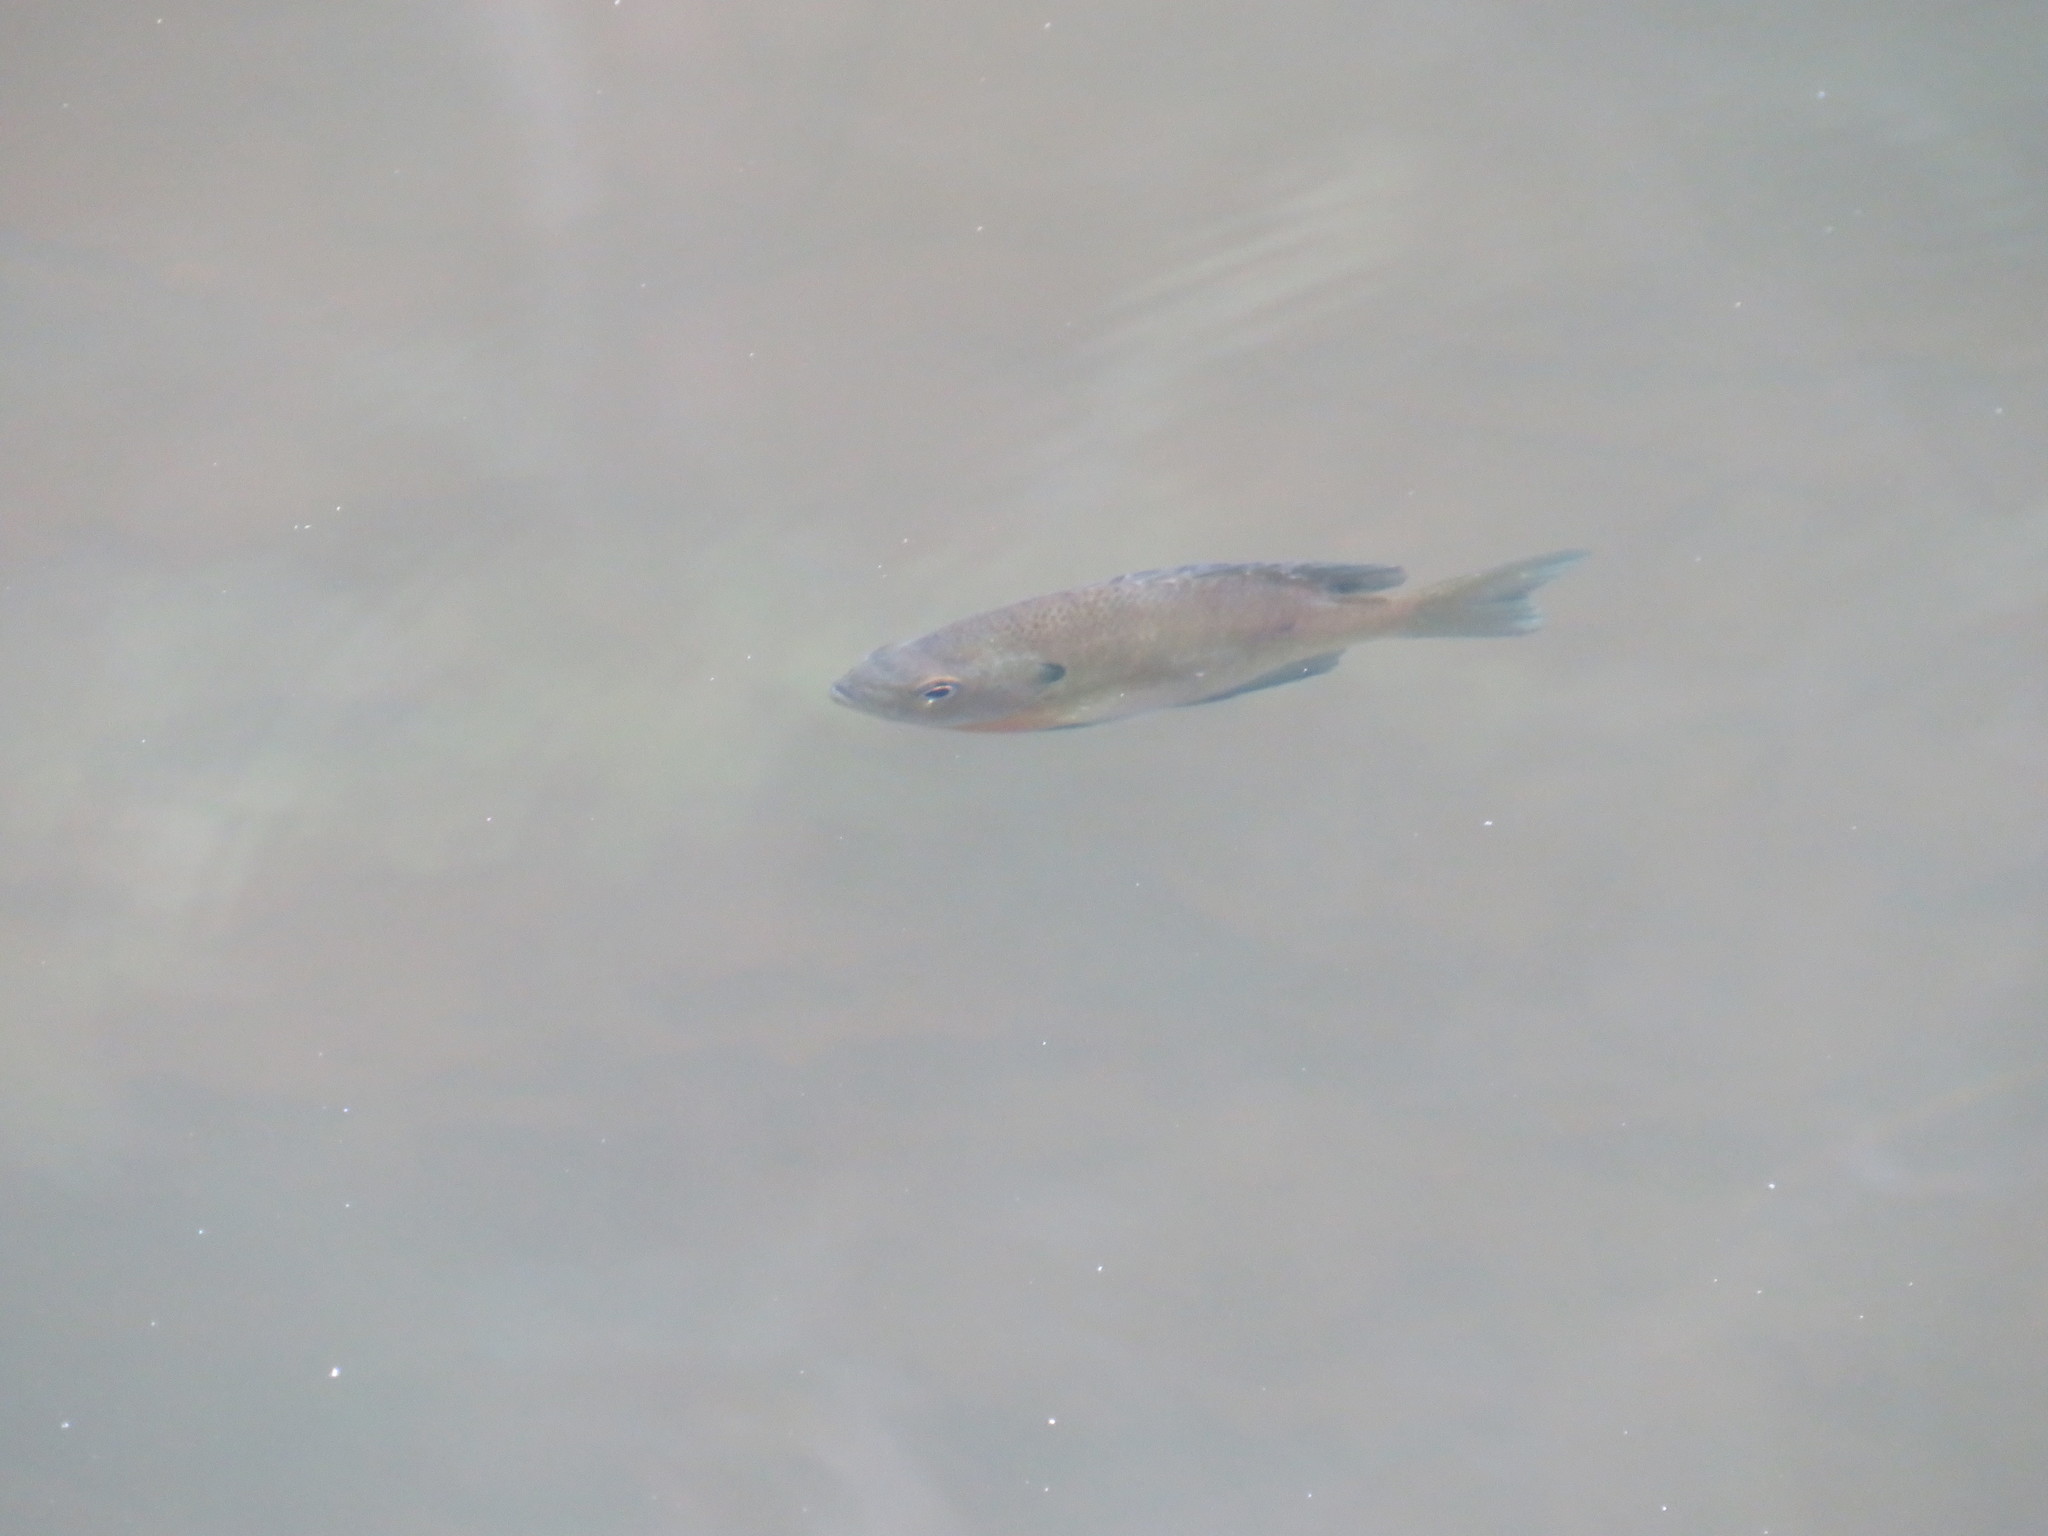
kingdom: Animalia
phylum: Chordata
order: Perciformes
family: Centrarchidae
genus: Lepomis
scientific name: Lepomis macrochirus
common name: Bluegill
